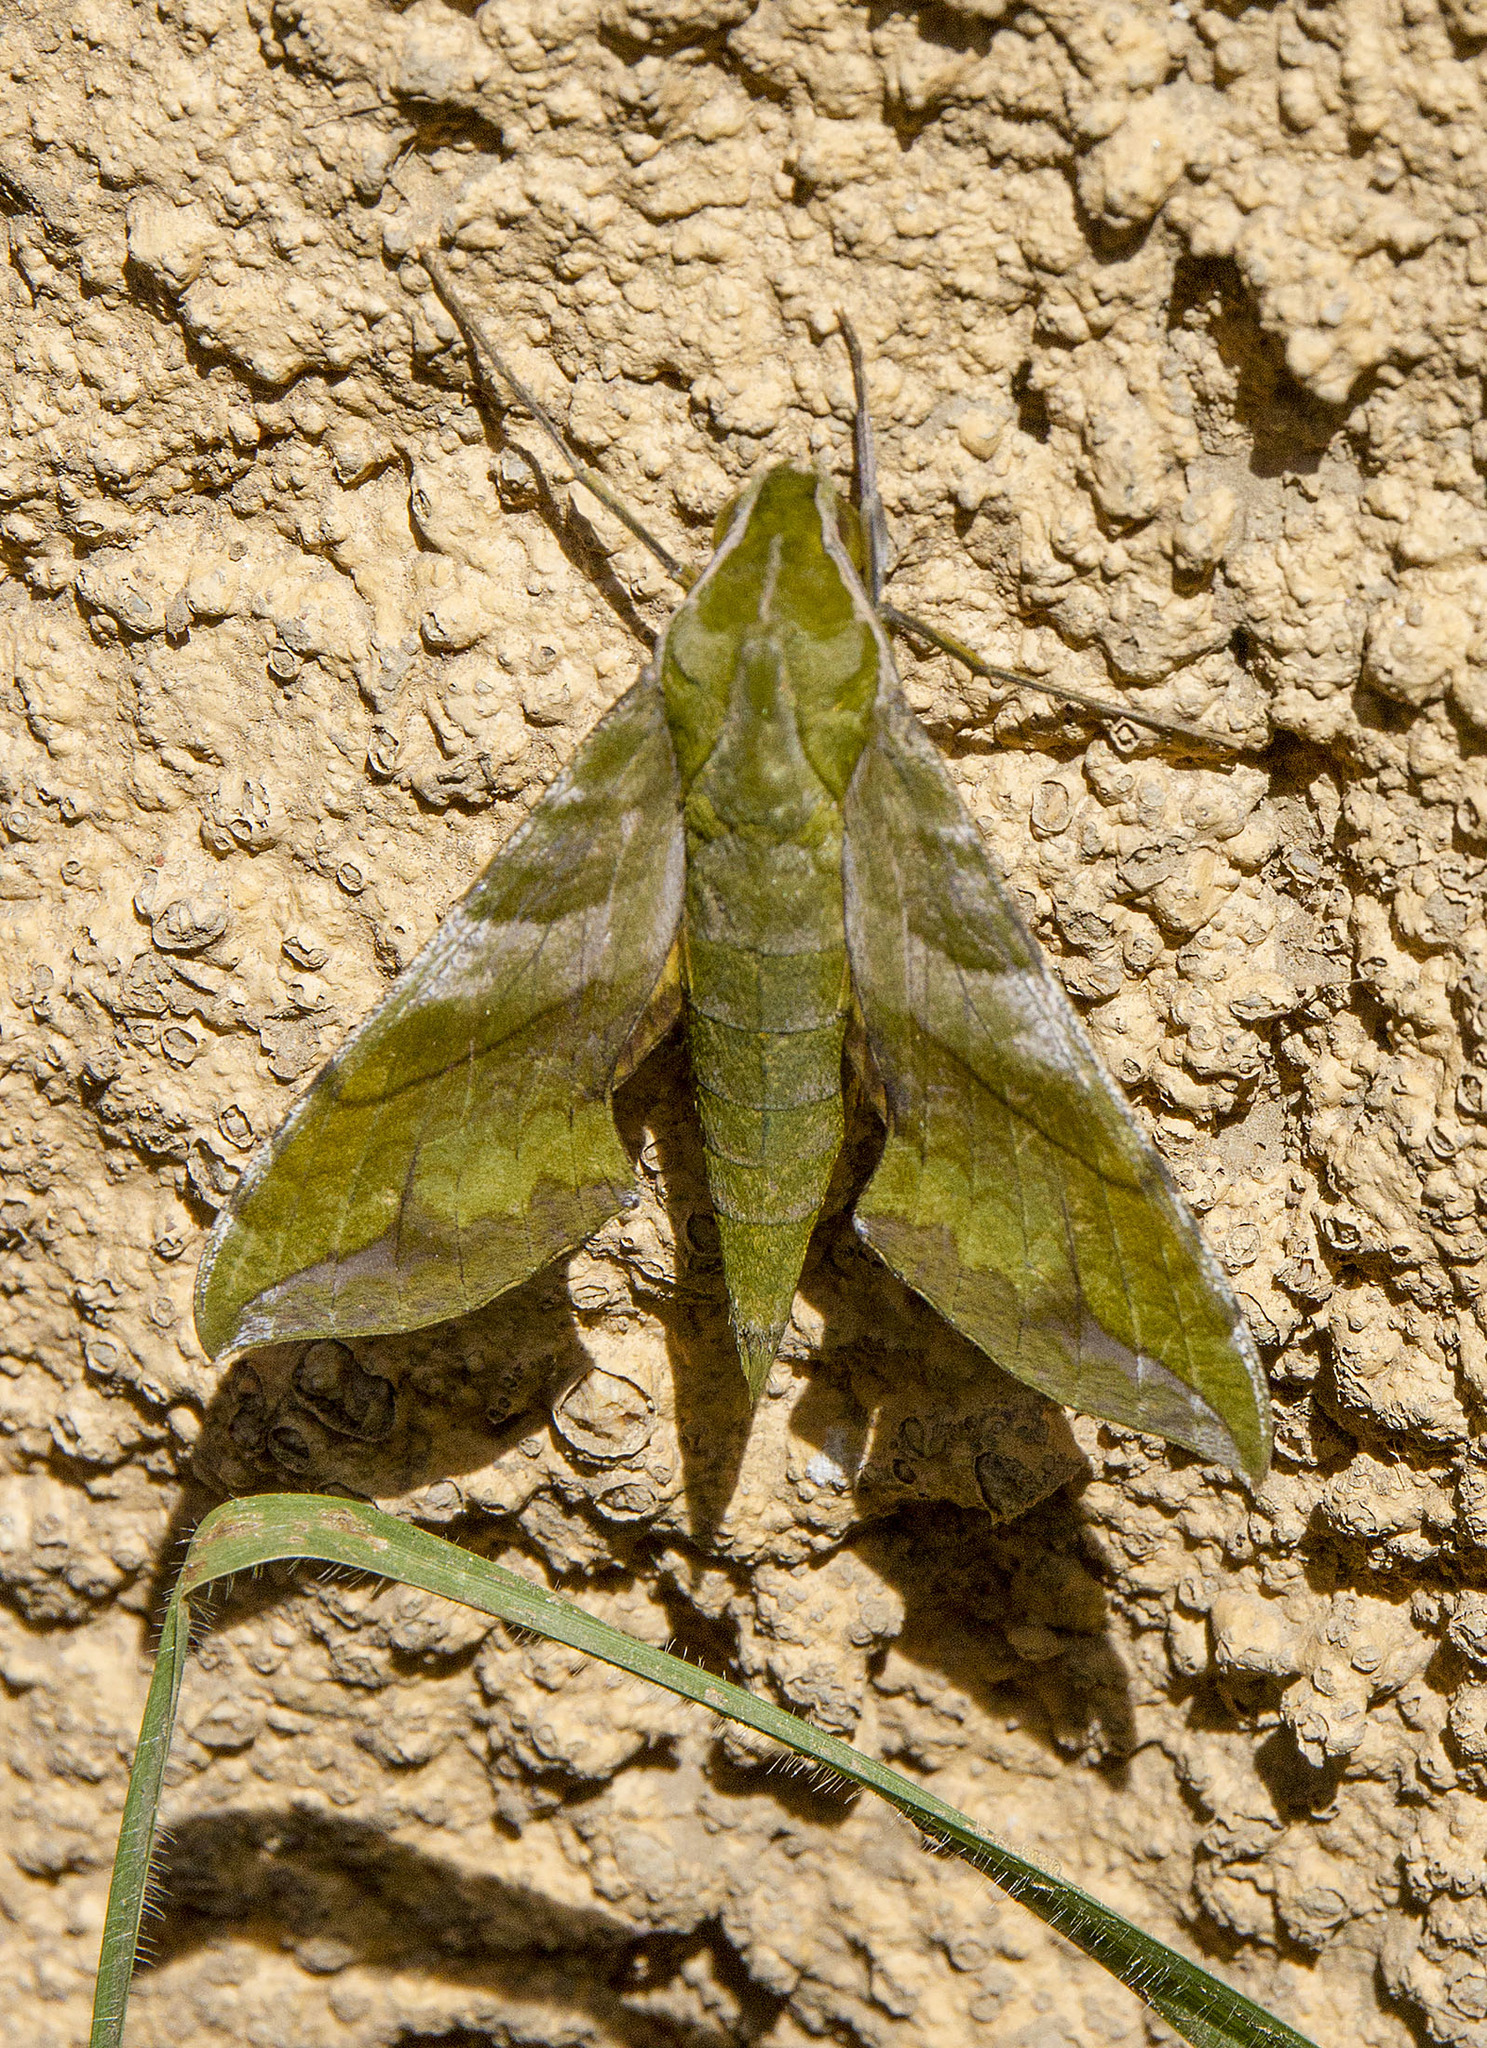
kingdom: Animalia
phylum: Arthropoda
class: Insecta
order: Lepidoptera
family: Sphingidae
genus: Xylophanes
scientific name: Xylophanes pluto
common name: Pluto sphinx
